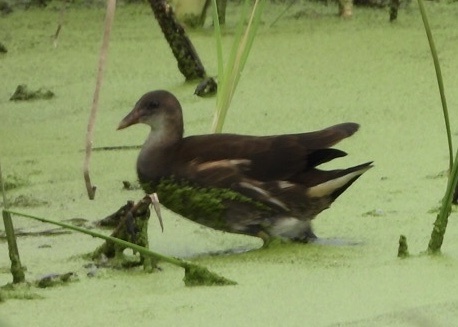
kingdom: Animalia
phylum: Chordata
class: Aves
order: Gruiformes
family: Rallidae
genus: Gallinula
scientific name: Gallinula chloropus
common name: Common moorhen
